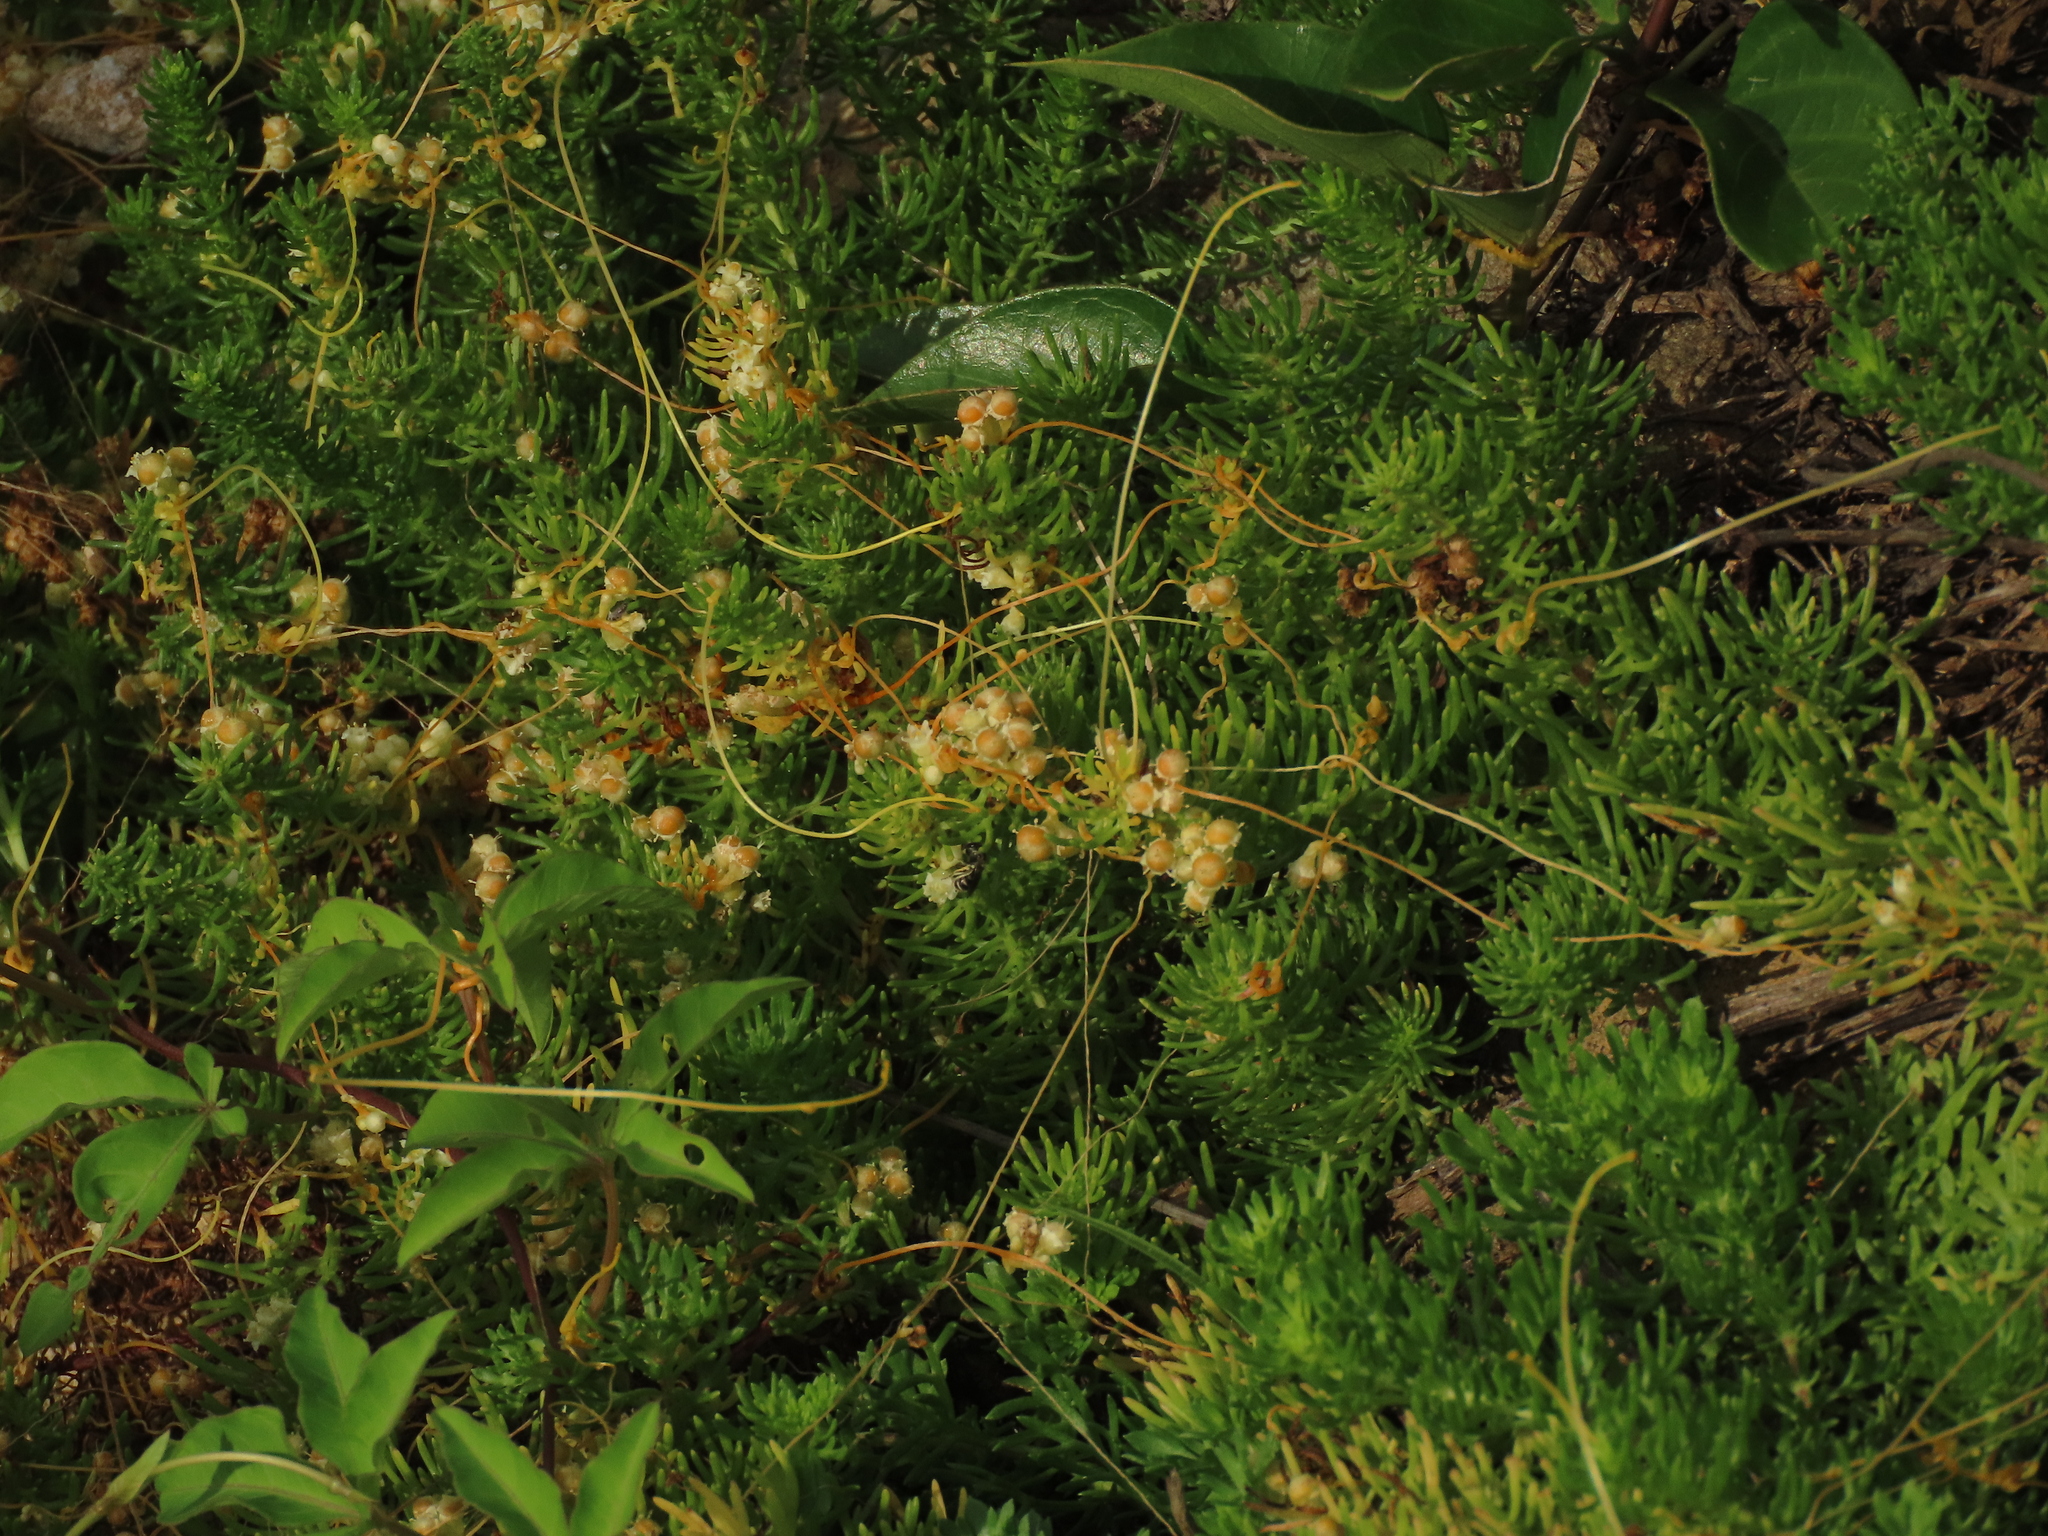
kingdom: Plantae
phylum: Tracheophyta
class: Magnoliopsida
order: Solanales
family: Convolvulaceae
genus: Cuscuta
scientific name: Cuscuta campestris
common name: Yellow dodder
